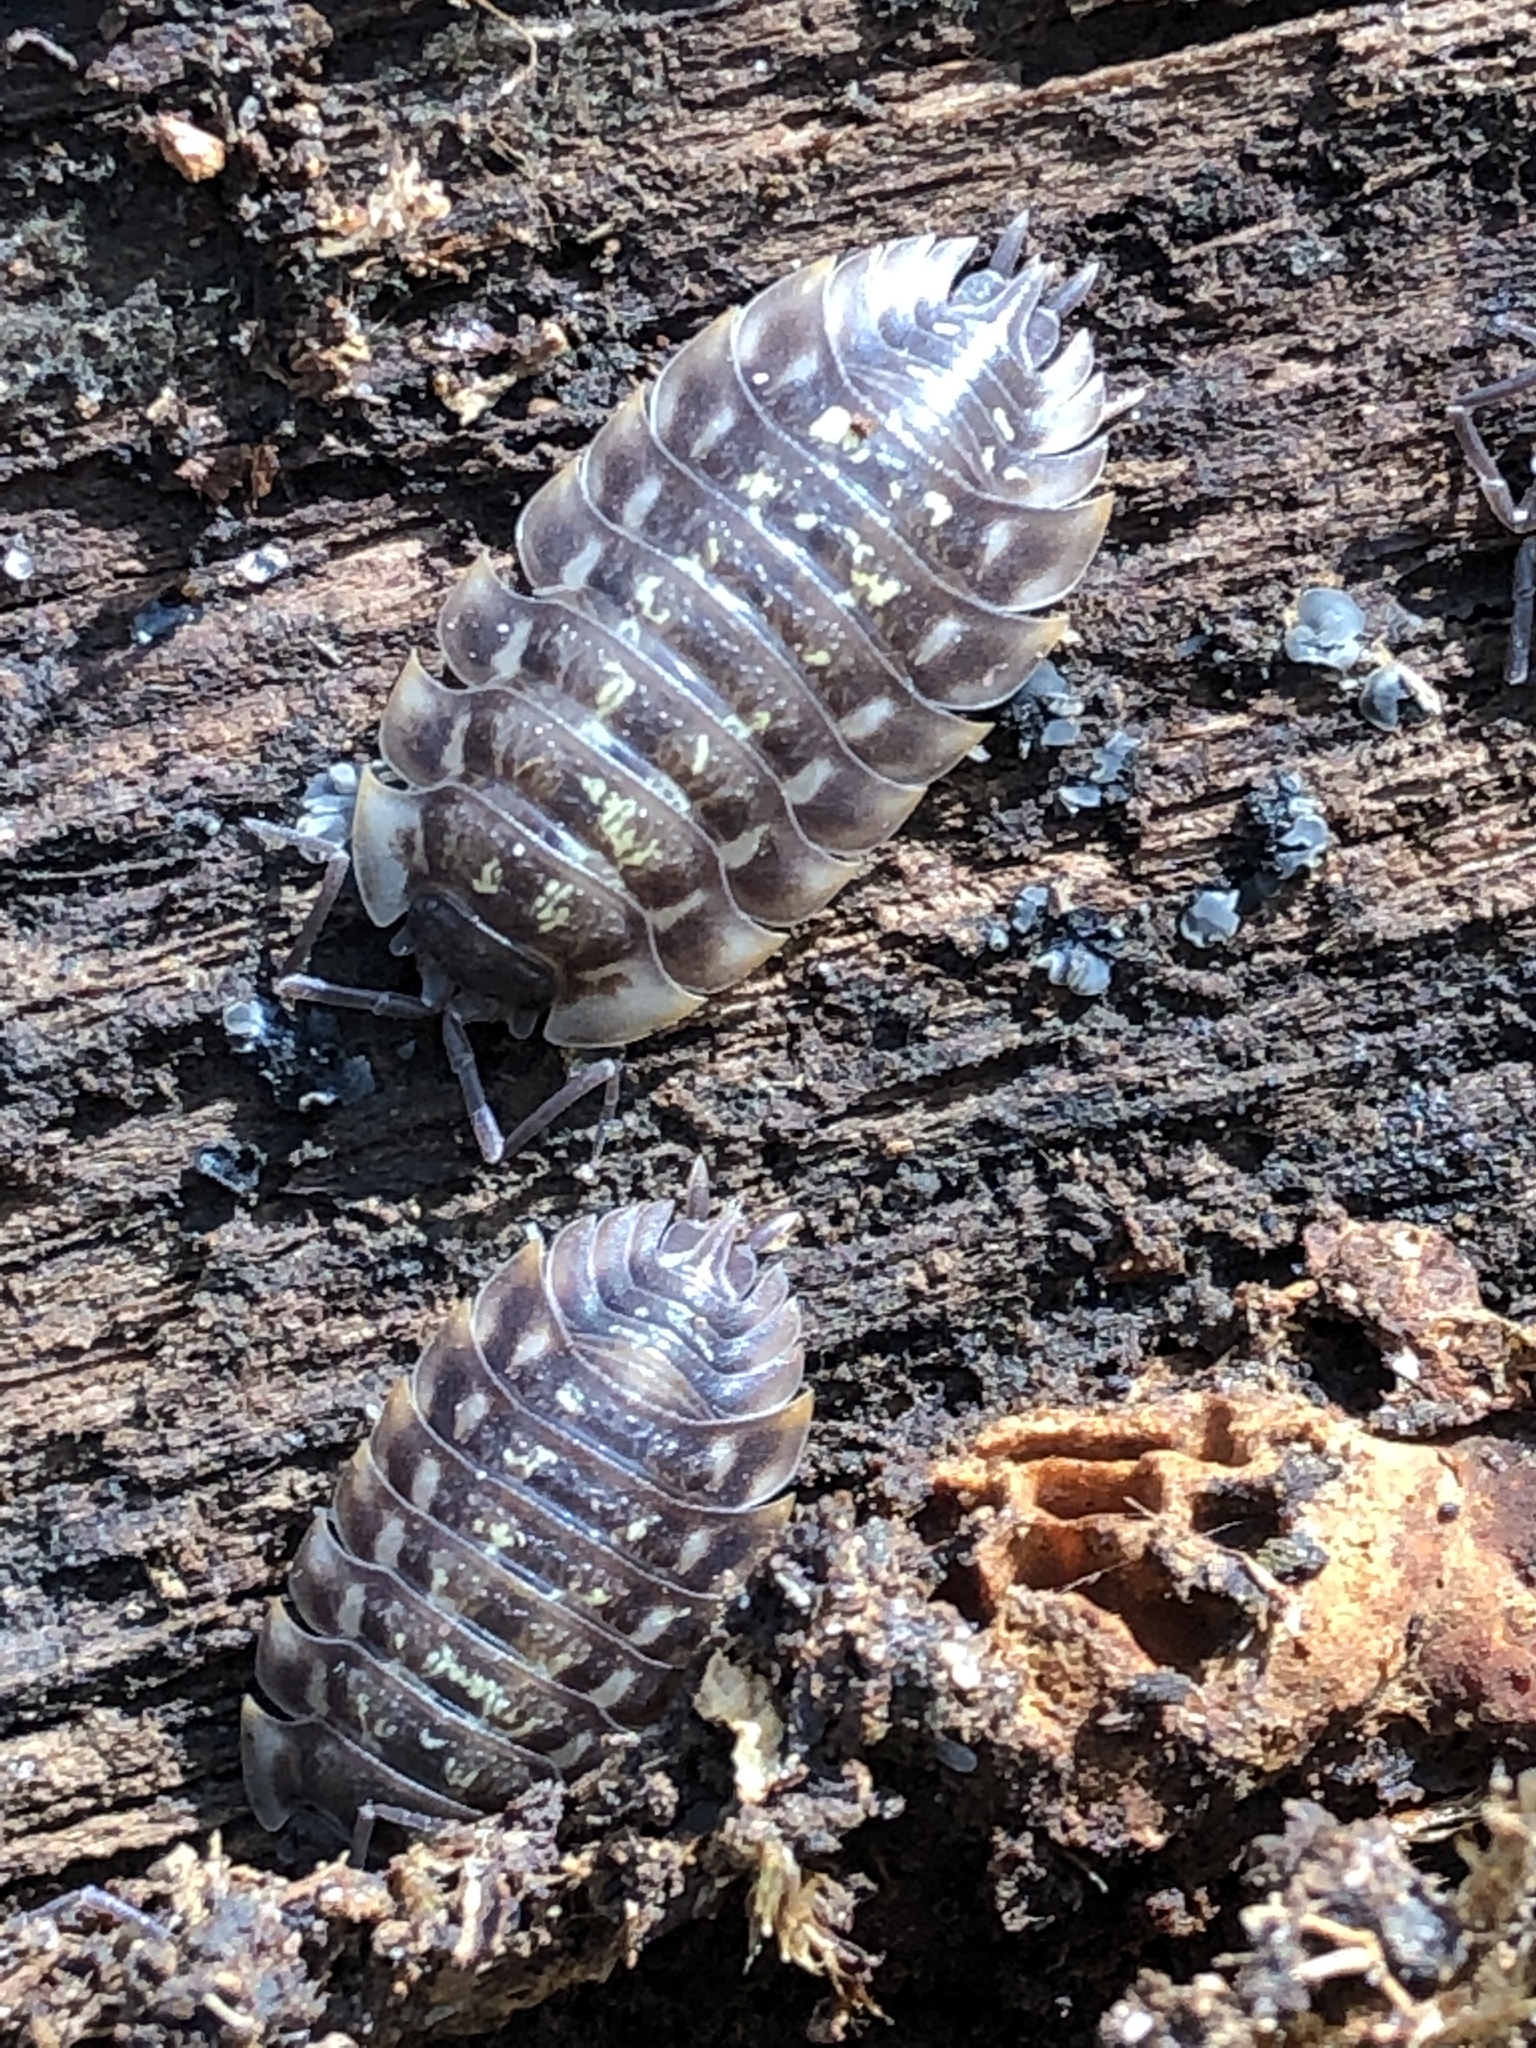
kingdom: Animalia
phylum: Arthropoda
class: Malacostraca
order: Isopoda
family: Oniscidae
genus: Oniscus
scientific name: Oniscus asellus
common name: Common shiny woodlouse
